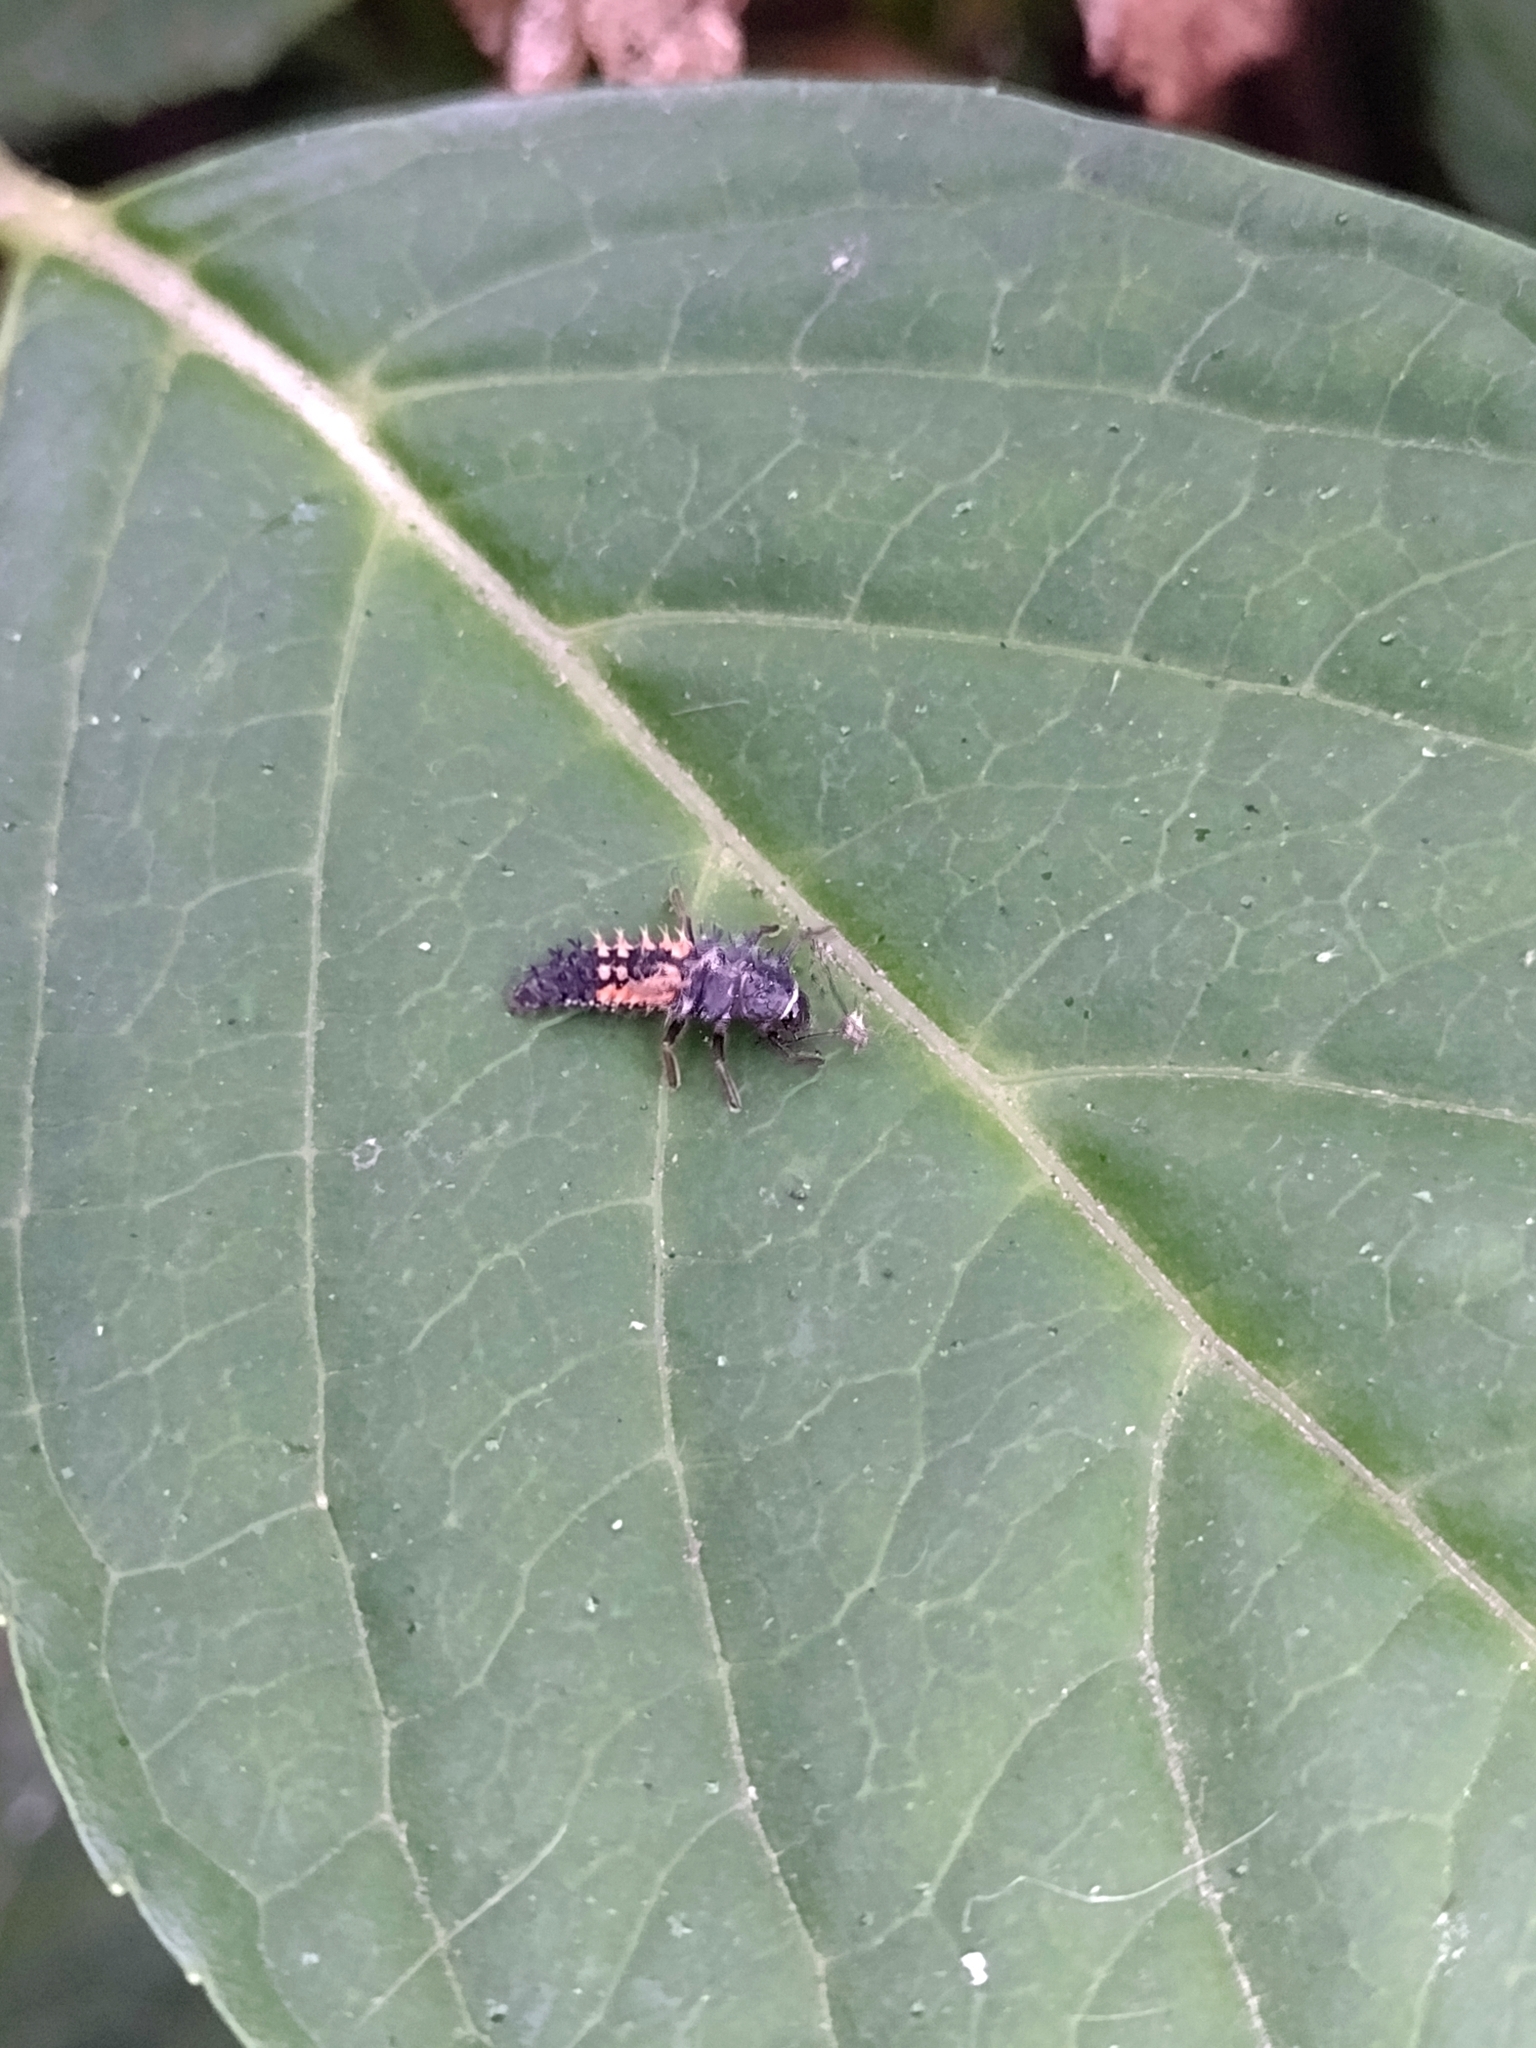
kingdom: Animalia
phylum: Arthropoda
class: Insecta
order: Coleoptera
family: Coccinellidae
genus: Harmonia
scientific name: Harmonia axyridis
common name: Harlequin ladybird
